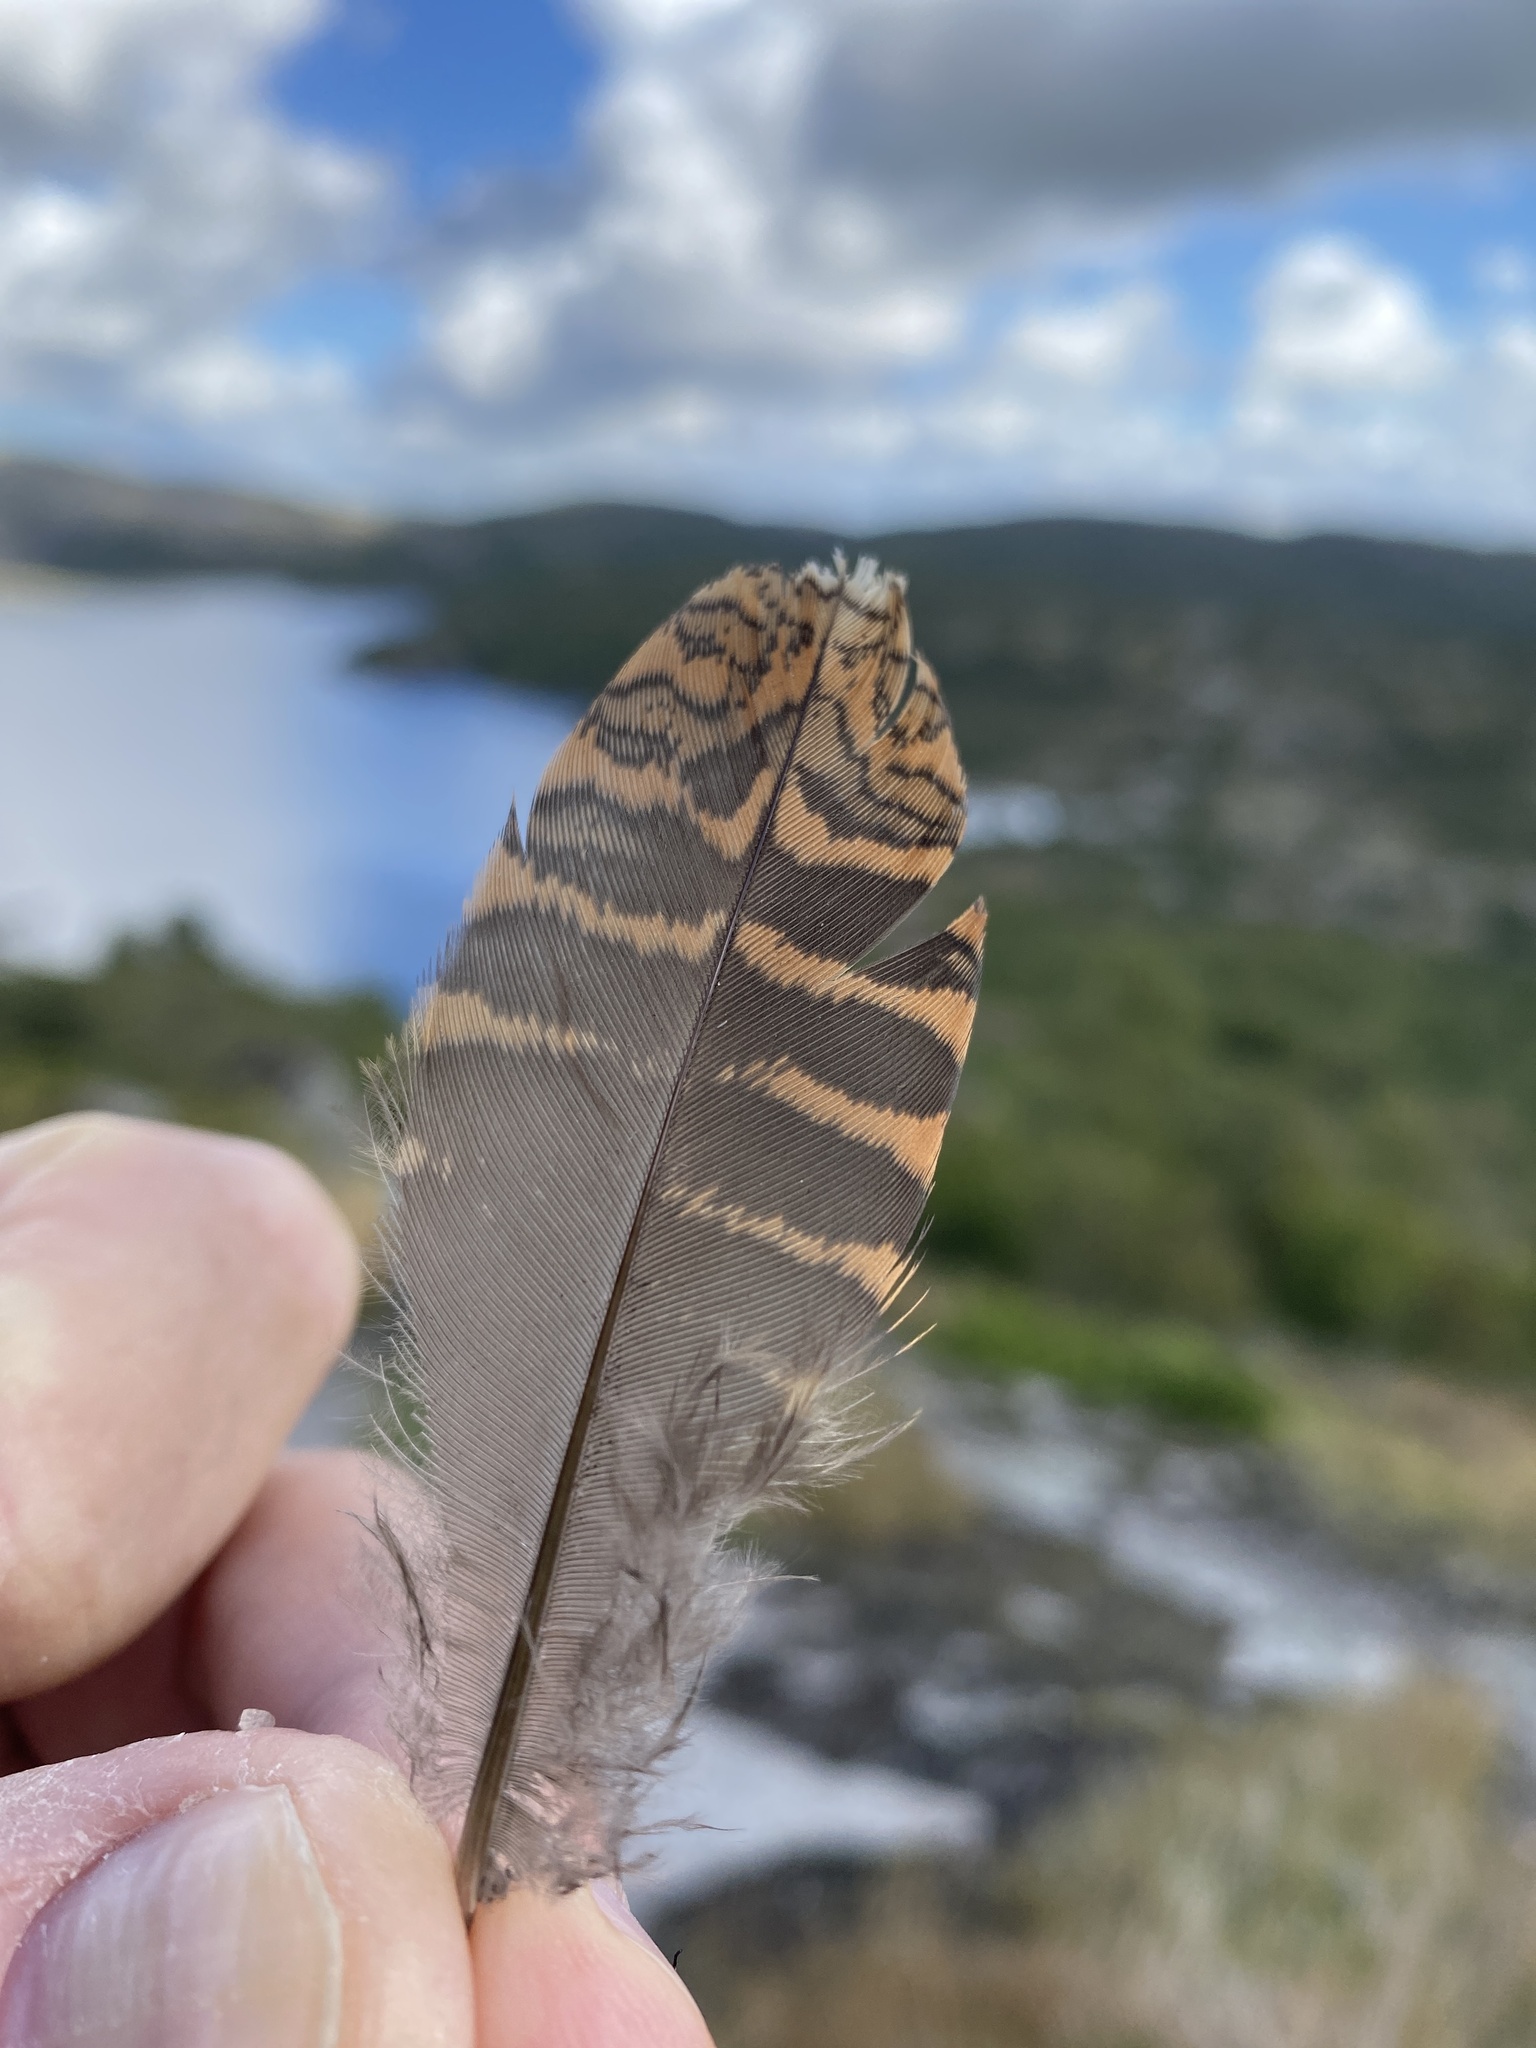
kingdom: Animalia
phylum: Chordata
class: Aves
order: Charadriiformes
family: Scolopacidae
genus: Scolopax
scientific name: Scolopax rusticola
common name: Eurasian woodcock
